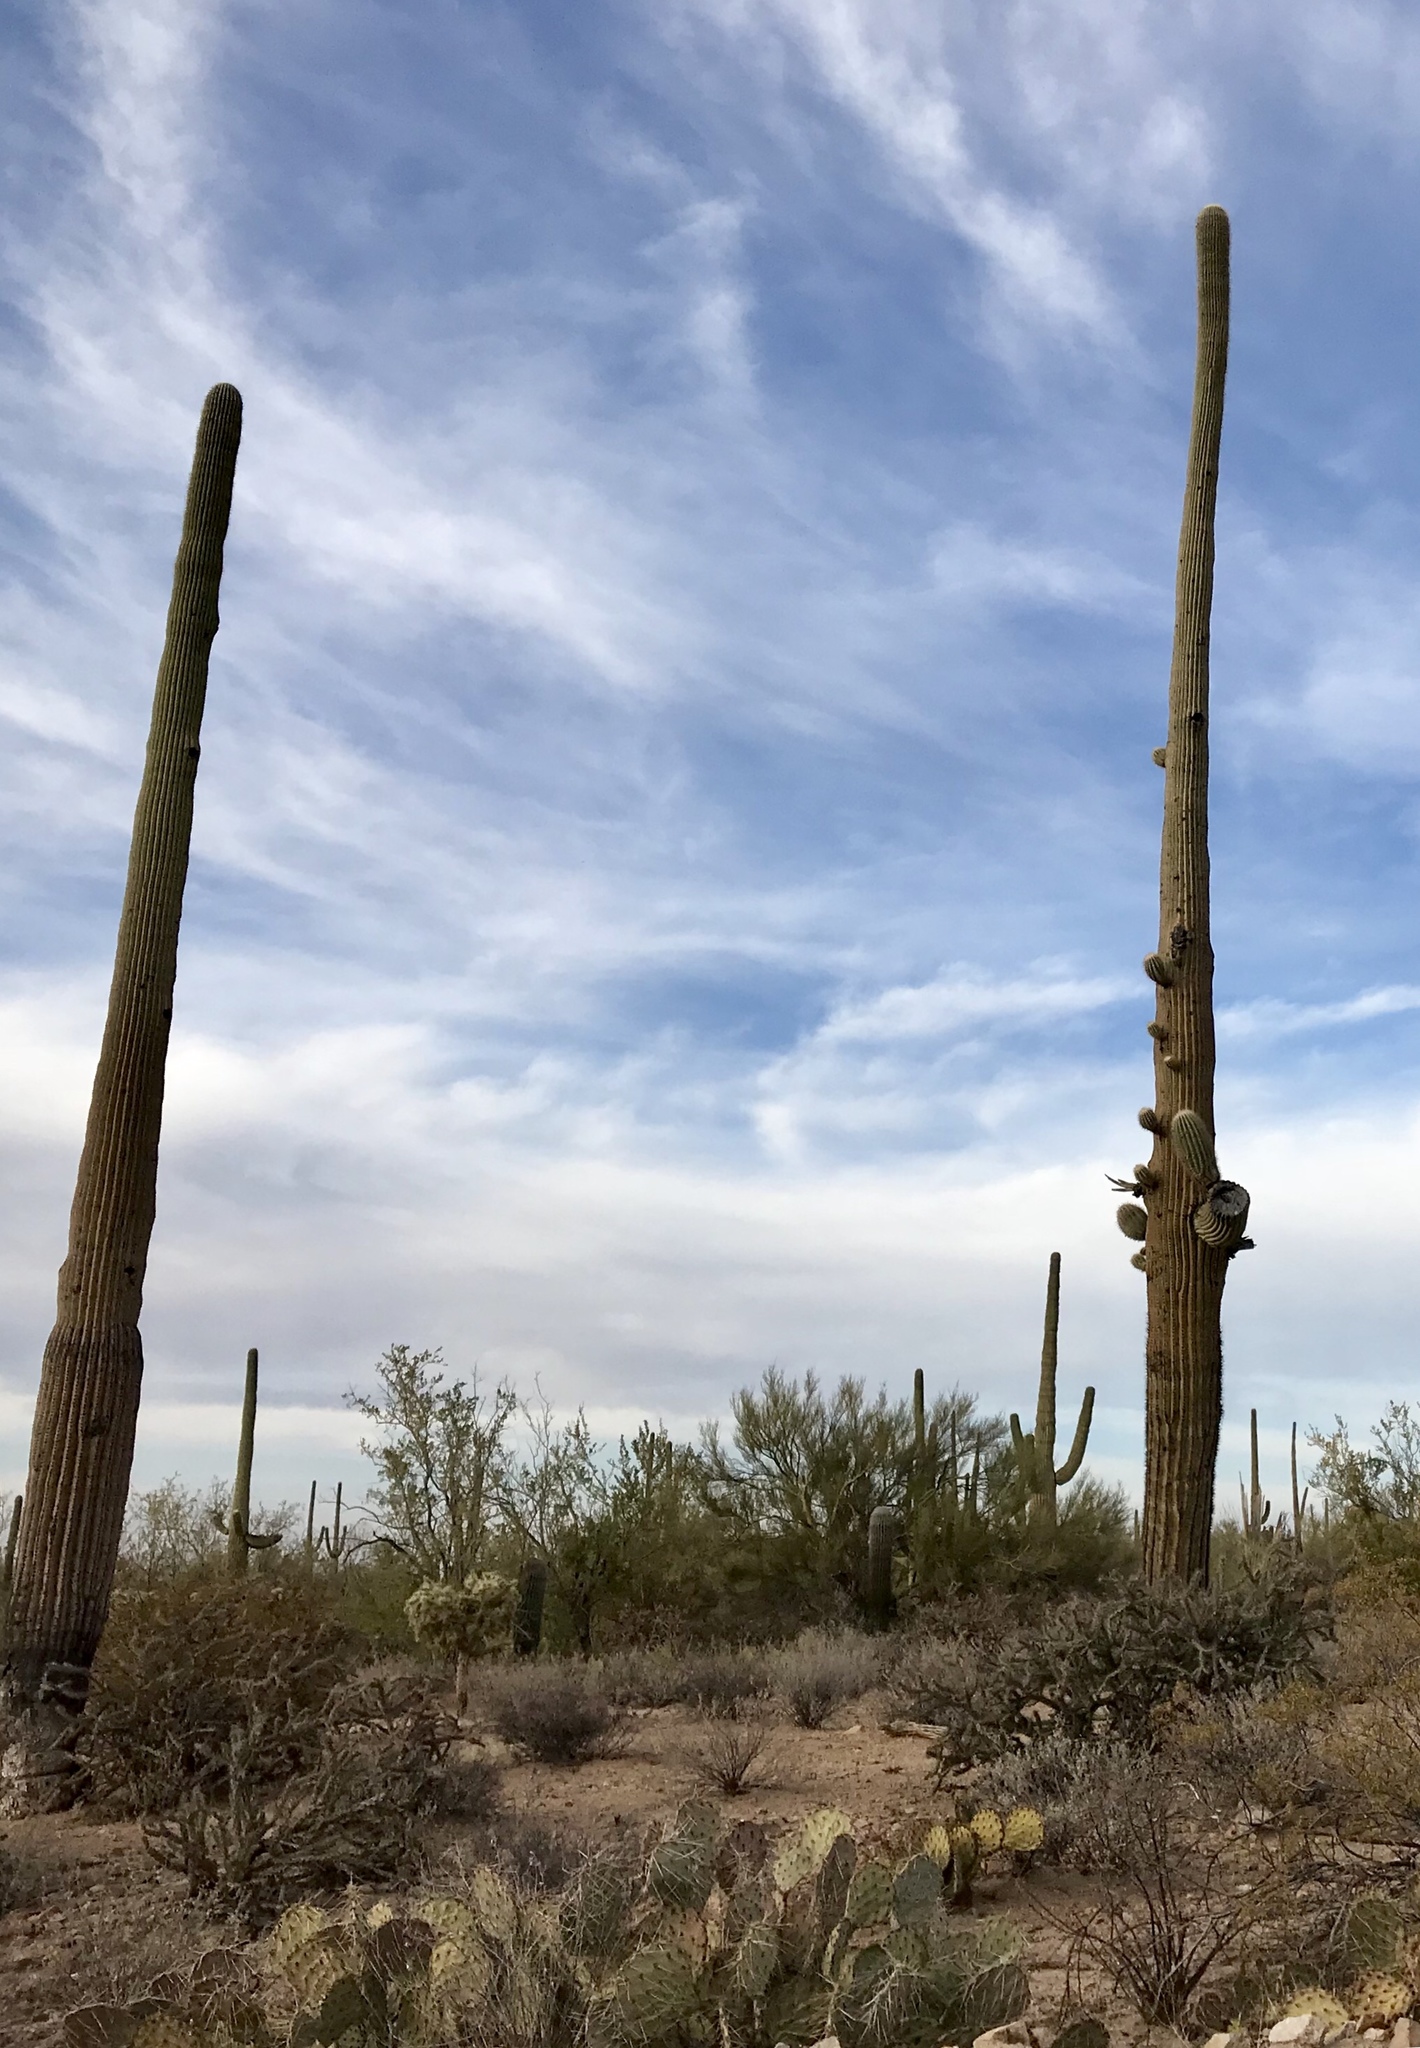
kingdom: Plantae
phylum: Tracheophyta
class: Magnoliopsida
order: Caryophyllales
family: Cactaceae
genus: Carnegiea
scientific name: Carnegiea gigantea
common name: Saguaro
